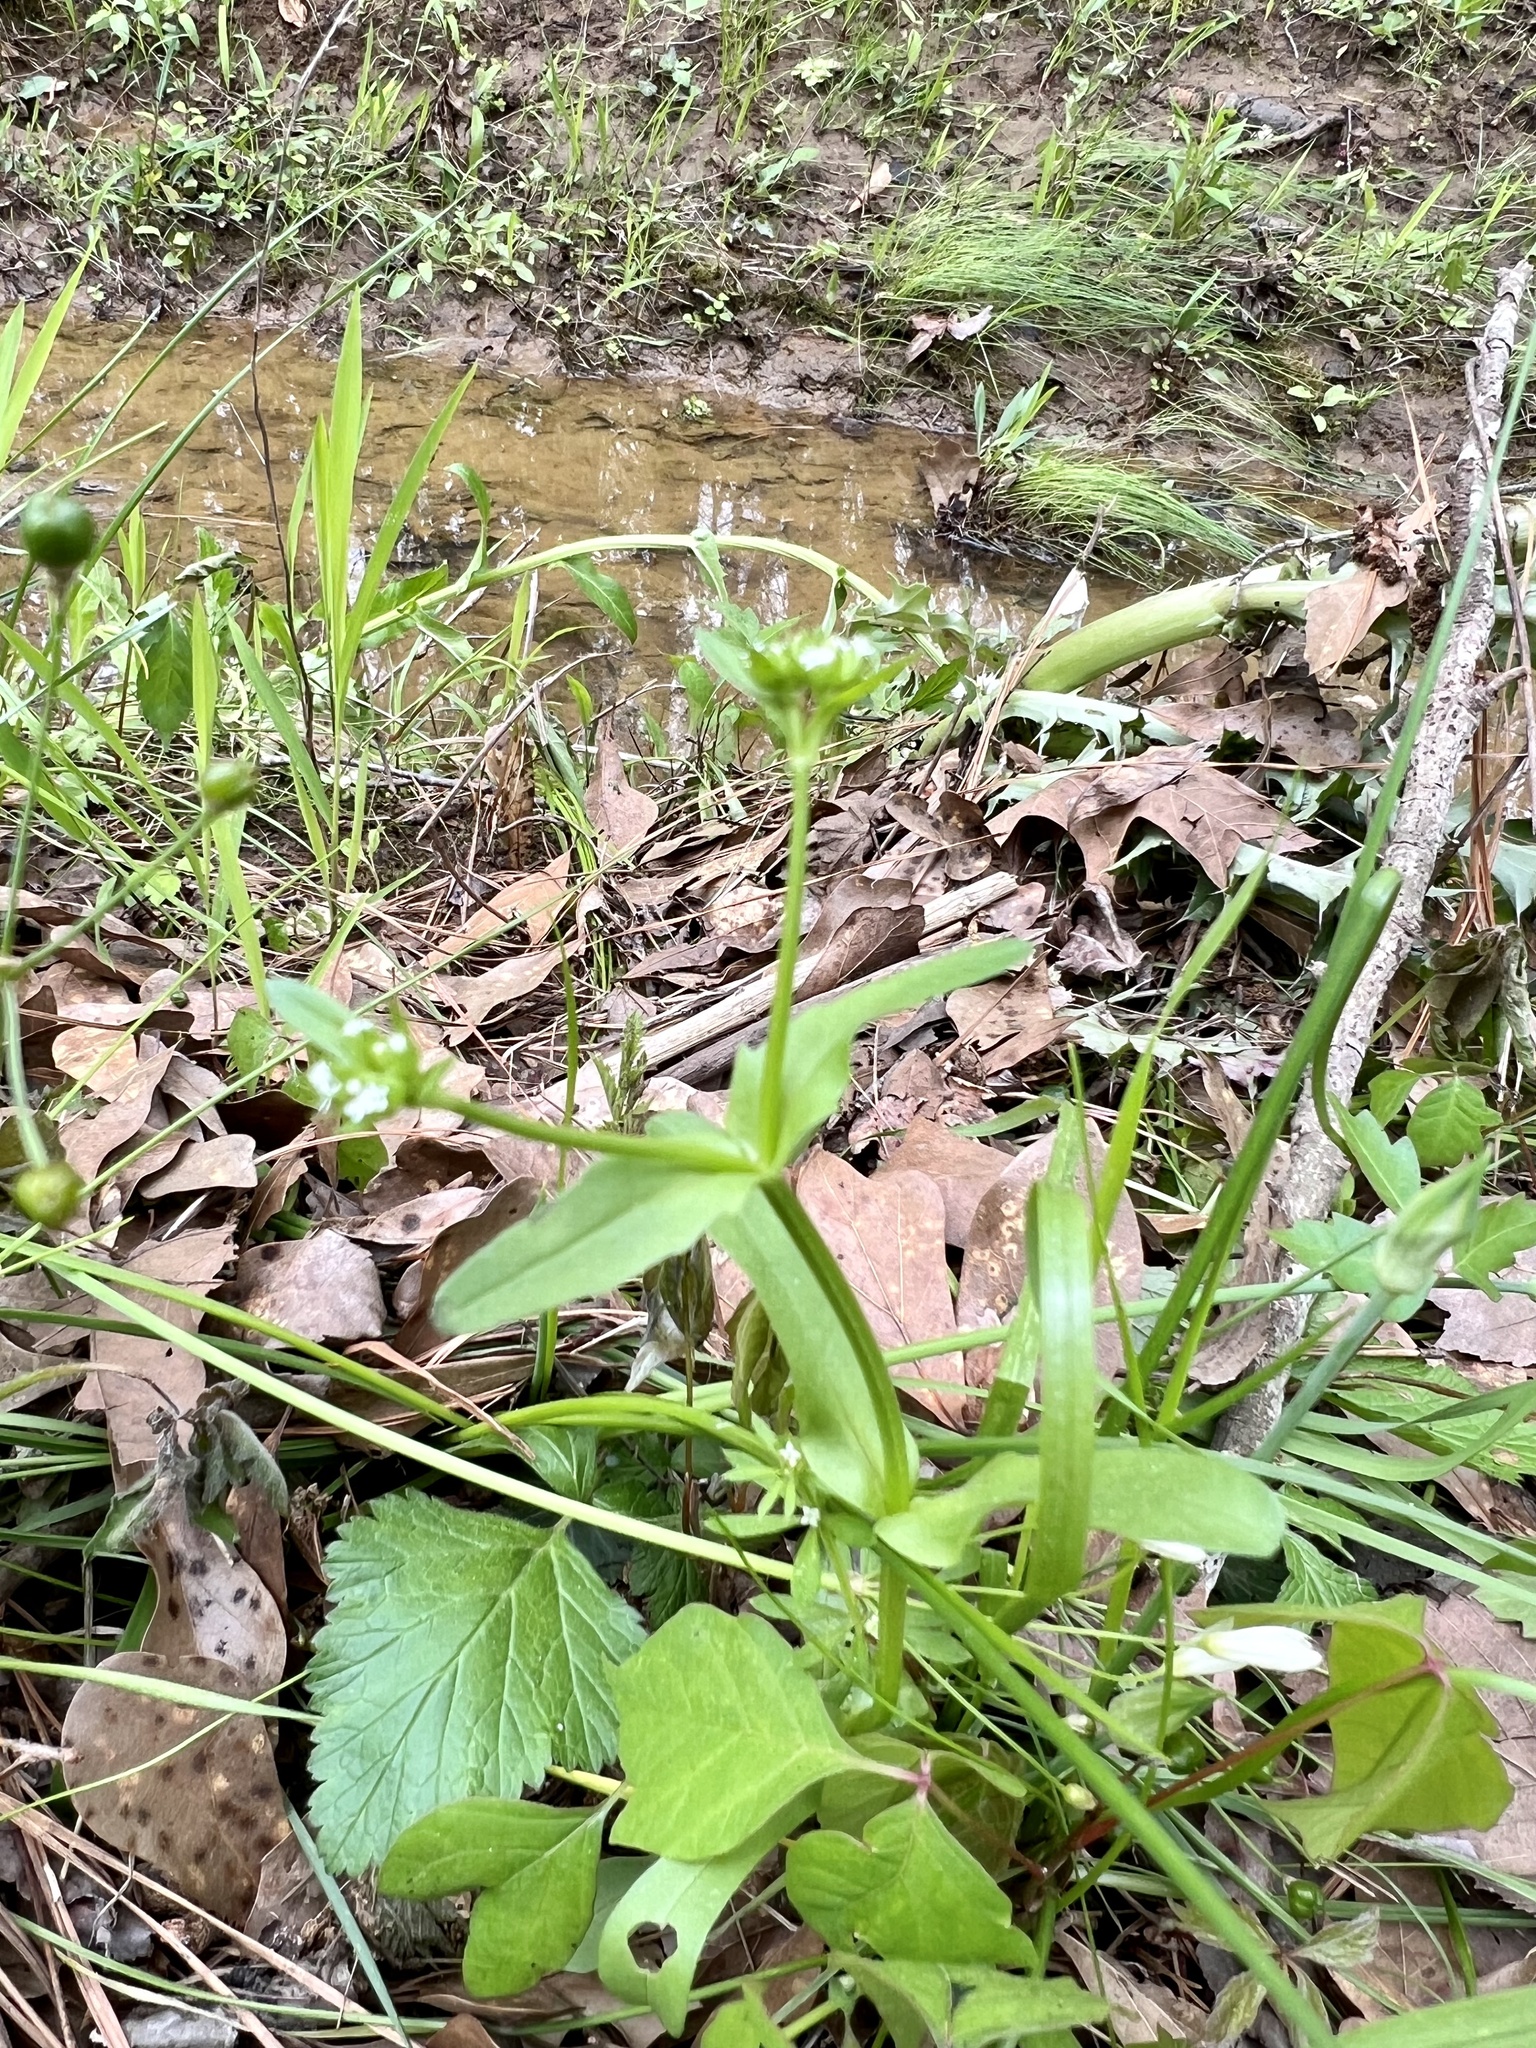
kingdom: Plantae
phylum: Tracheophyta
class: Magnoliopsida
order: Dipsacales
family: Caprifoliaceae
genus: Valerianella
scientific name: Valerianella radiata
